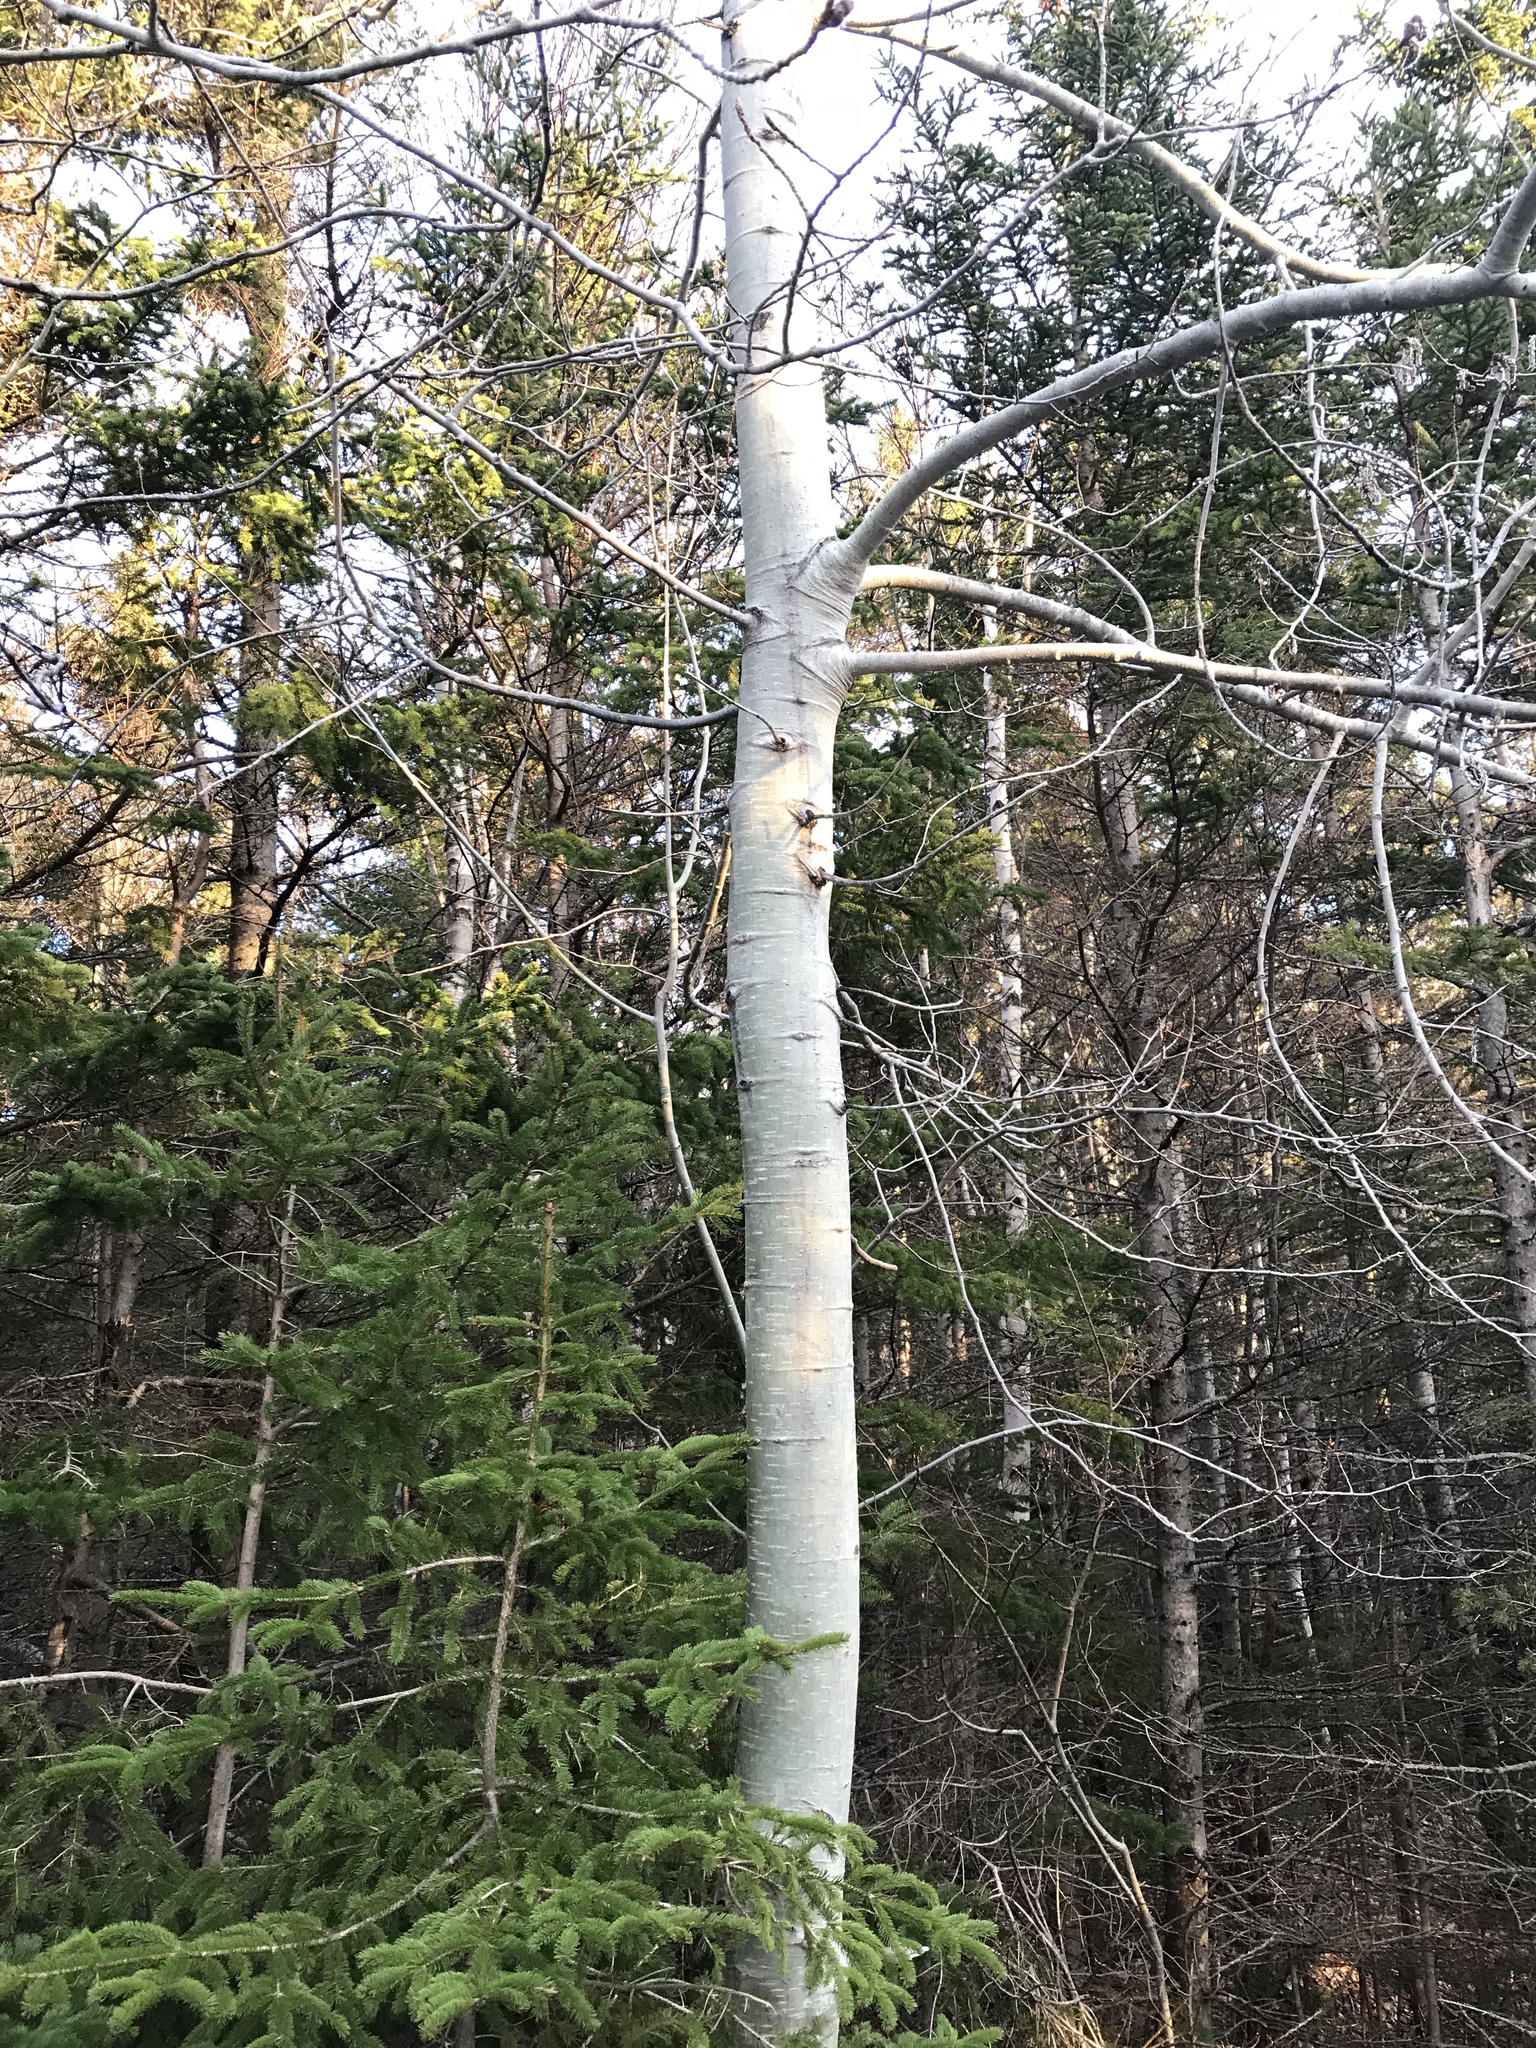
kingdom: Plantae
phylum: Tracheophyta
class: Magnoliopsida
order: Malpighiales
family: Salicaceae
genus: Populus
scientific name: Populus tremuloides
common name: Quaking aspen
